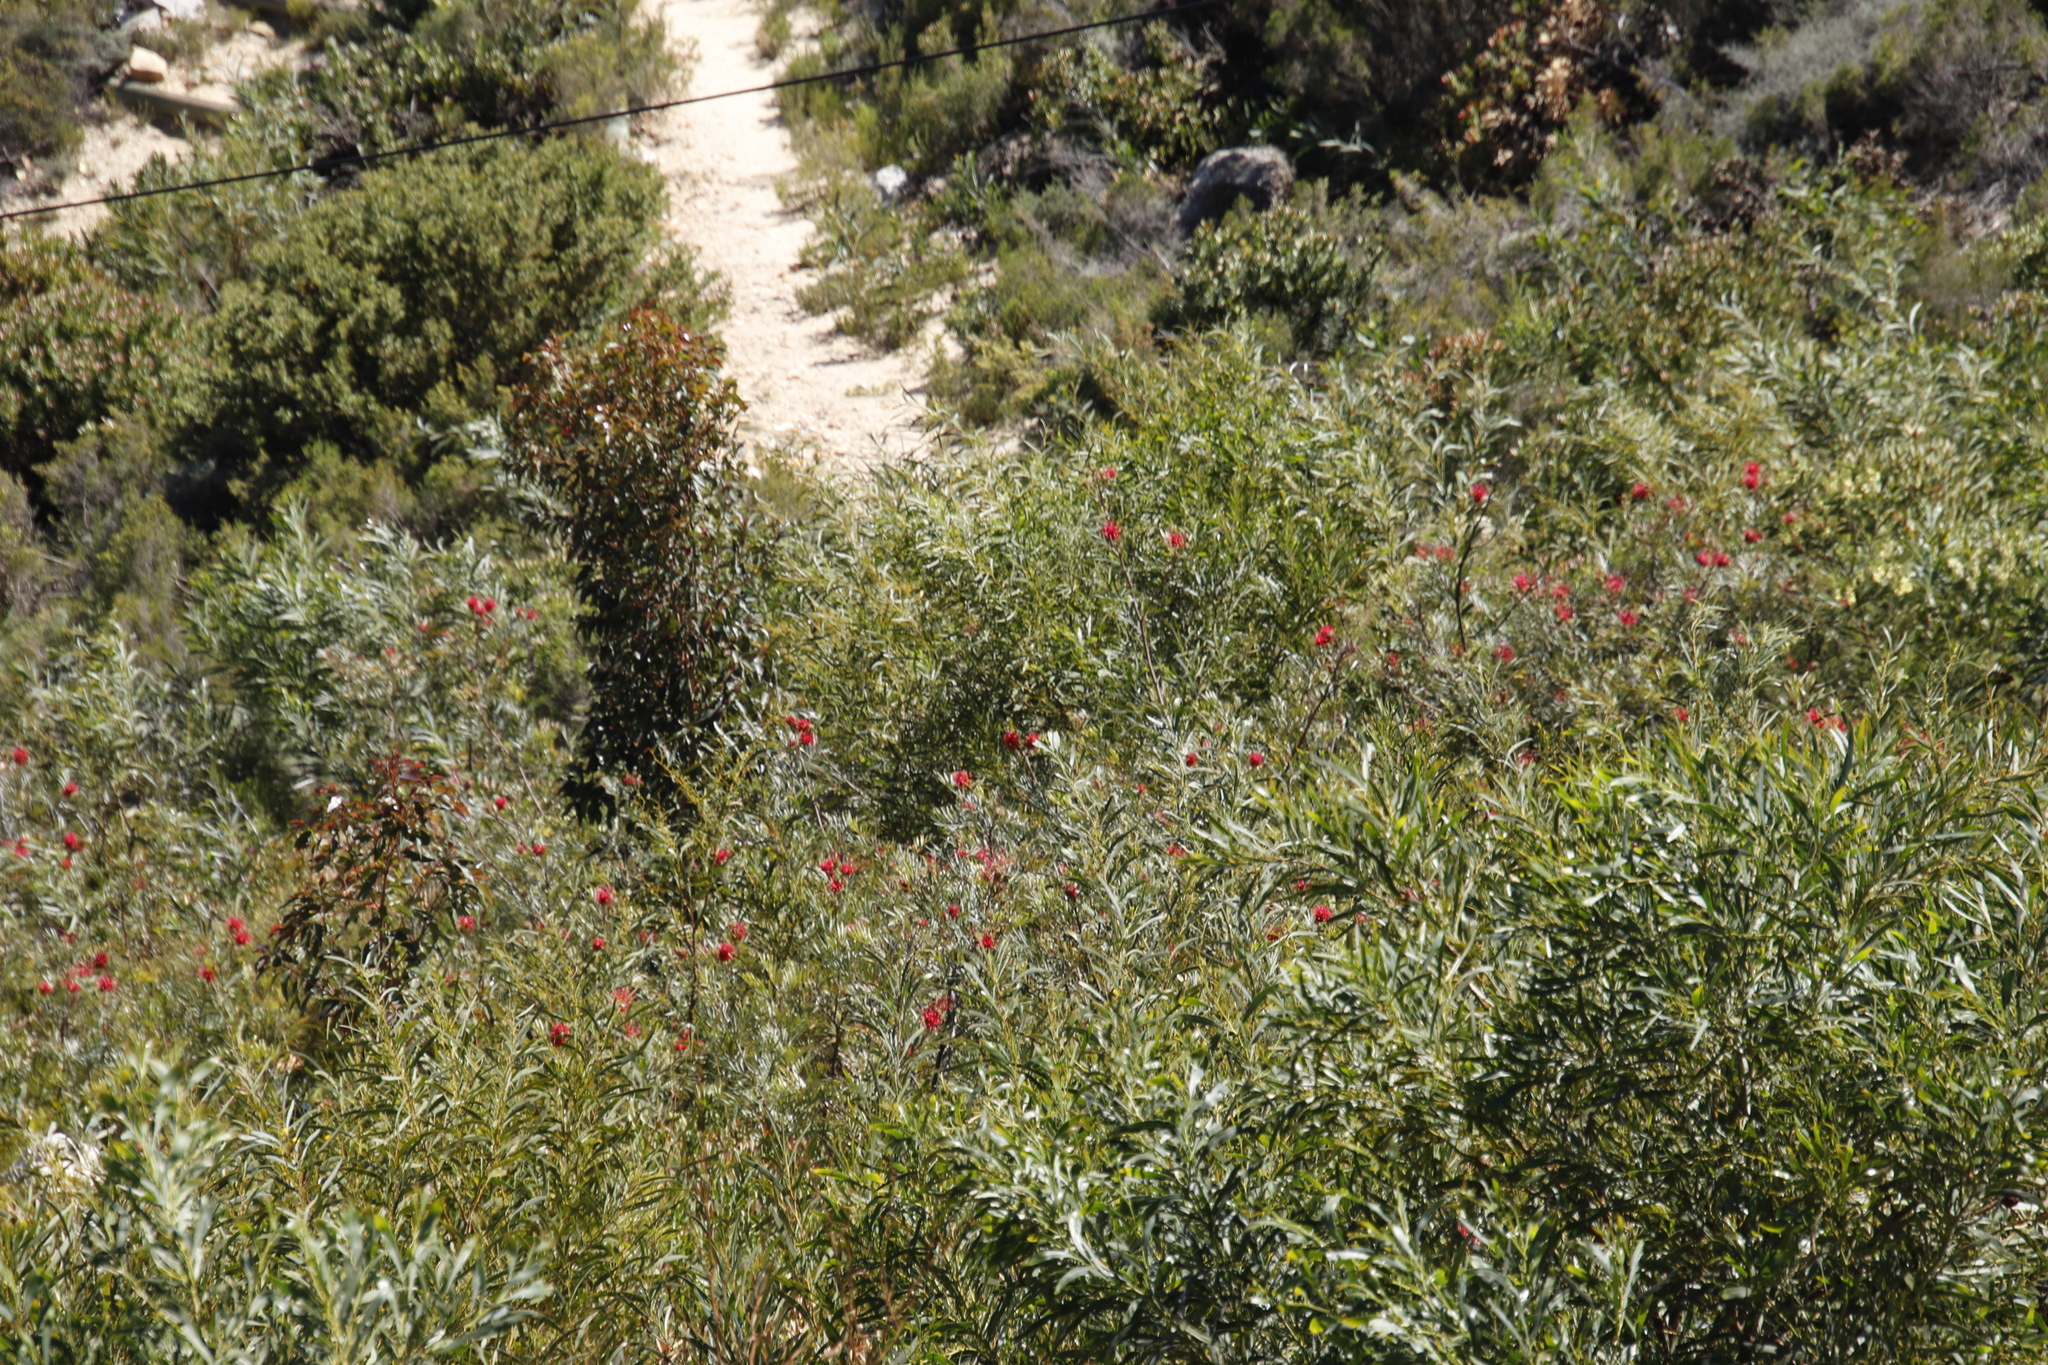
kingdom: Plantae
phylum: Tracheophyta
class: Magnoliopsida
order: Proteales
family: Proteaceae
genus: Grevillea
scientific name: Grevillea banksii
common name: Kahili flower
